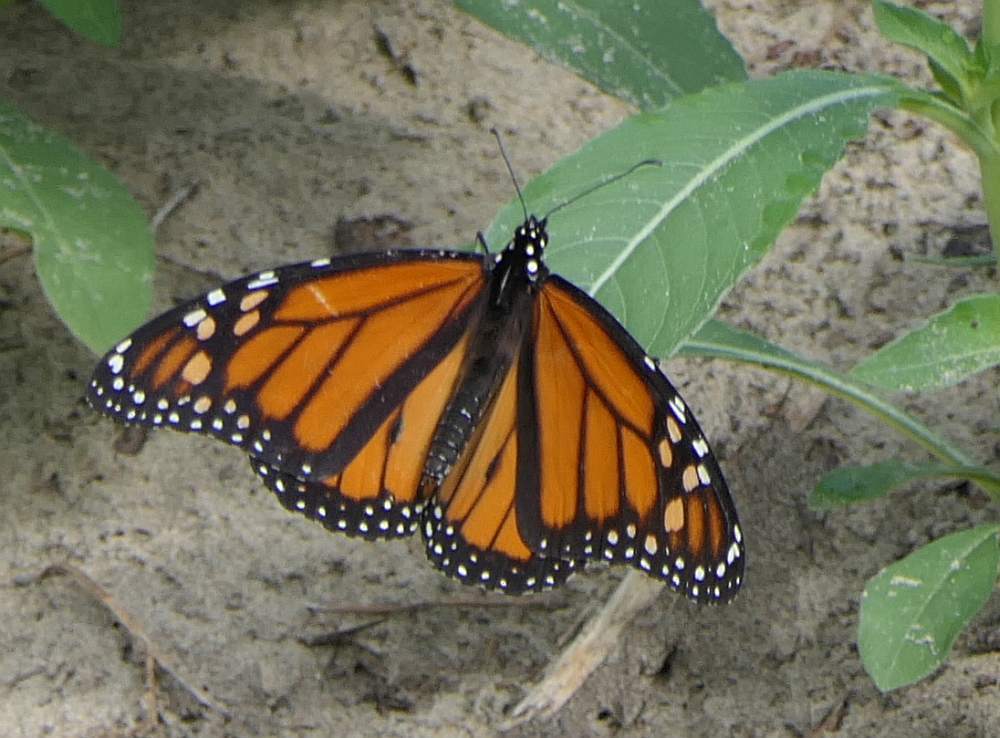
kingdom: Animalia
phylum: Arthropoda
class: Insecta
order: Lepidoptera
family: Nymphalidae
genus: Danaus
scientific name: Danaus plexippus
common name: Monarch
